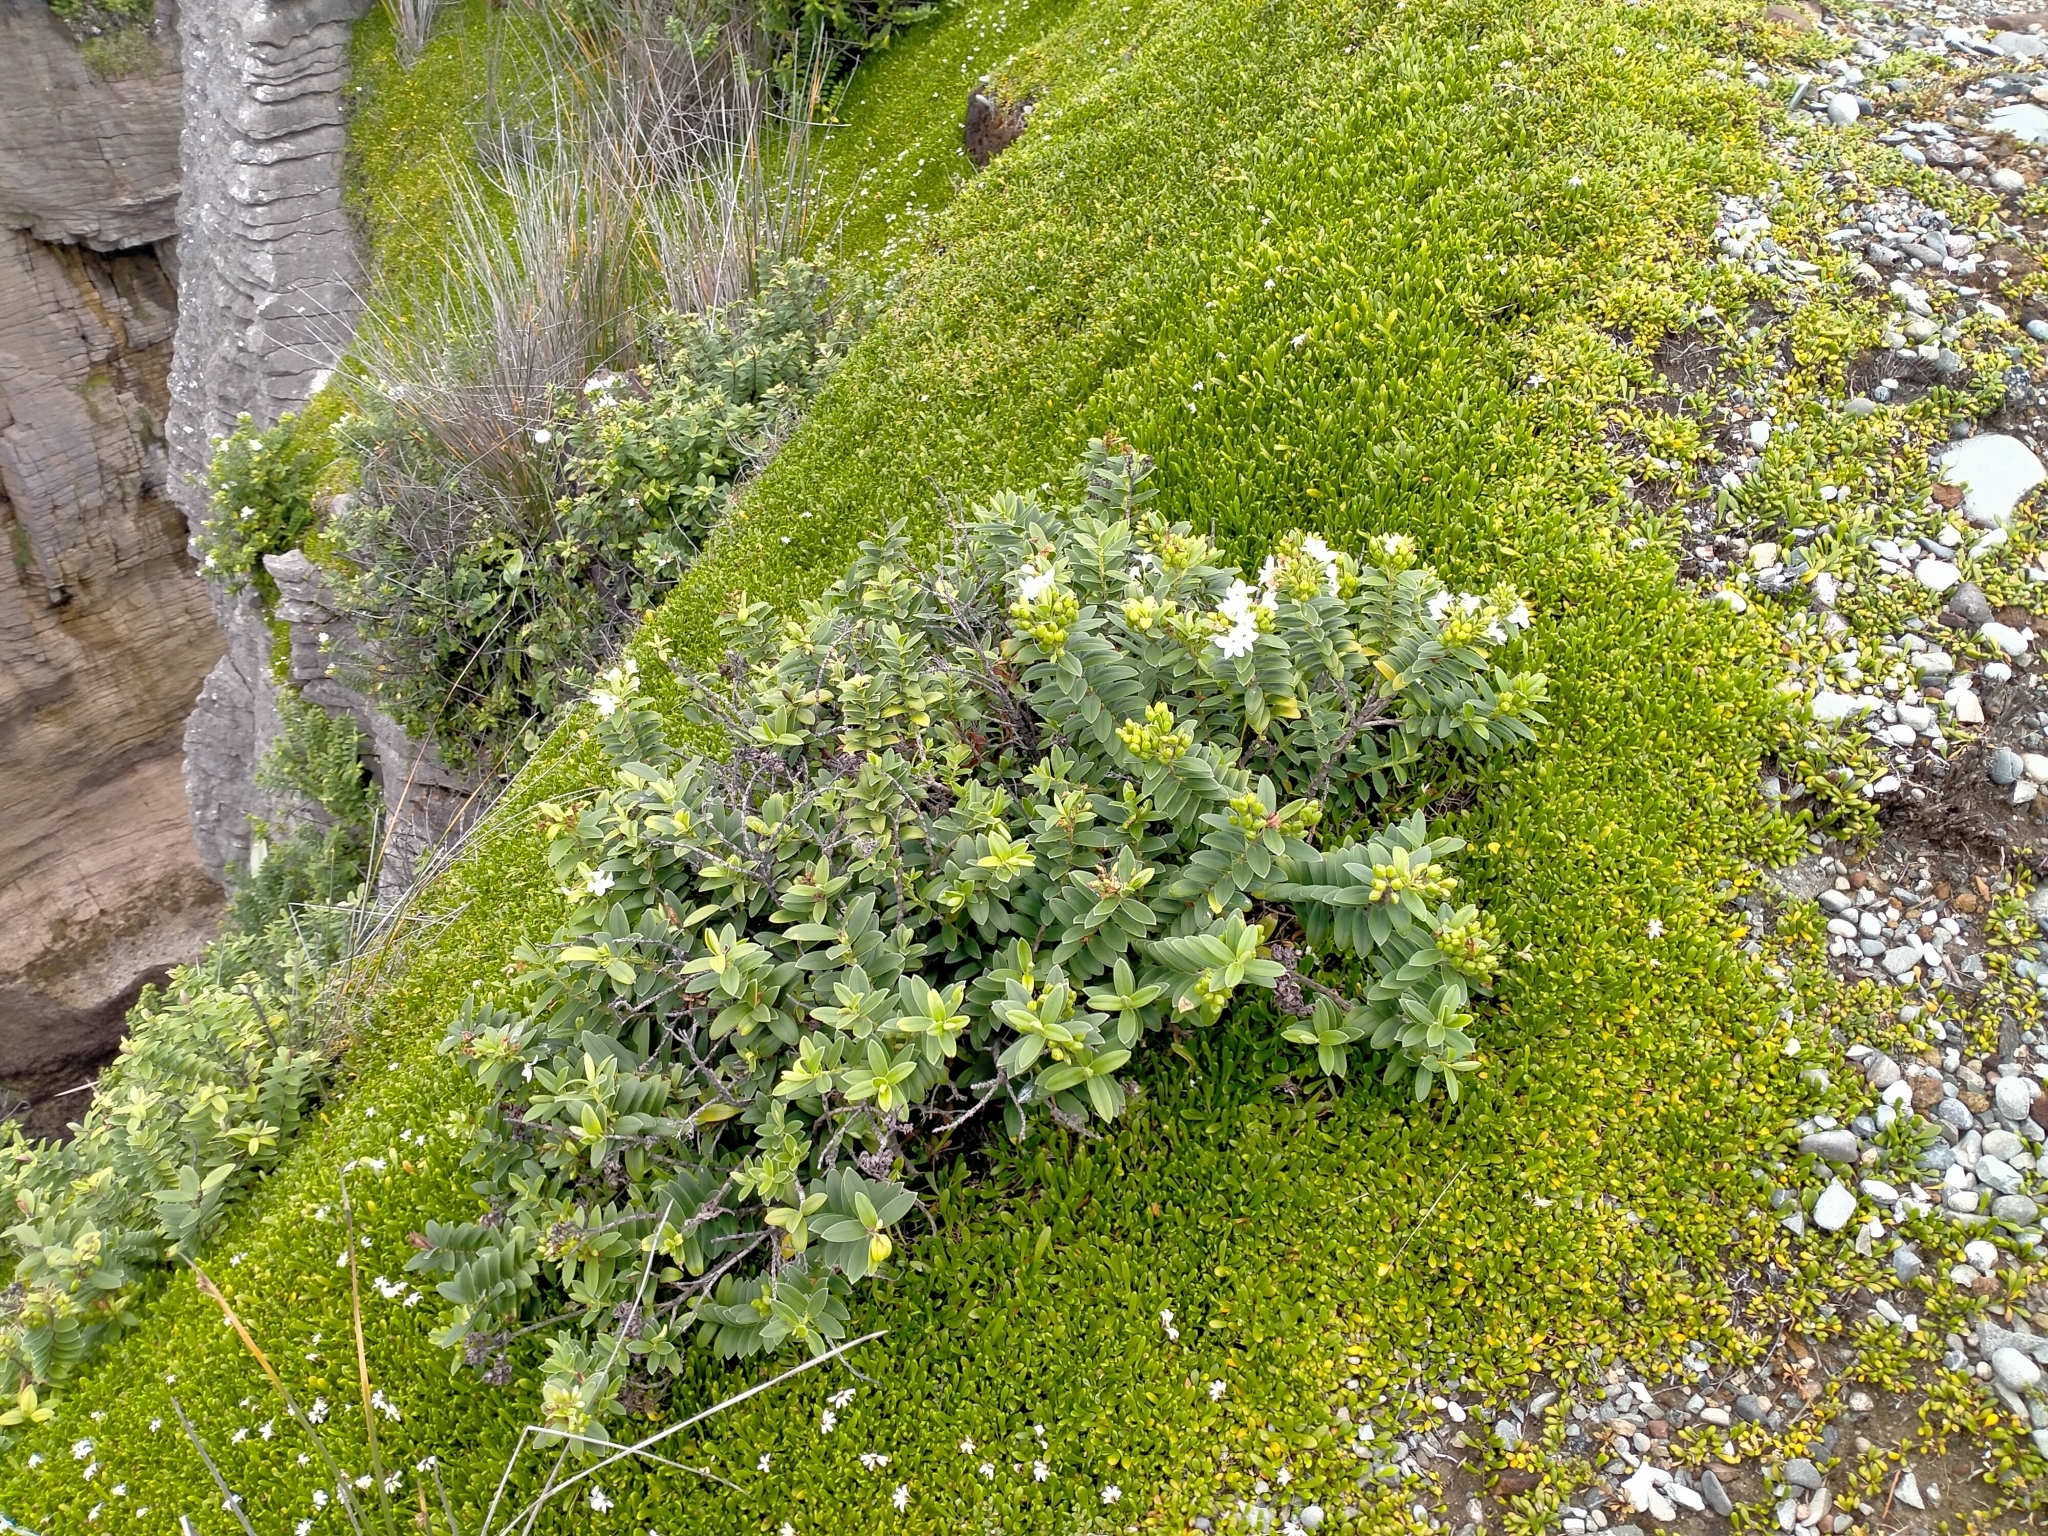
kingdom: Plantae
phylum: Tracheophyta
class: Magnoliopsida
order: Lamiales
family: Plantaginaceae
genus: Veronica
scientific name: Veronica elliptica
